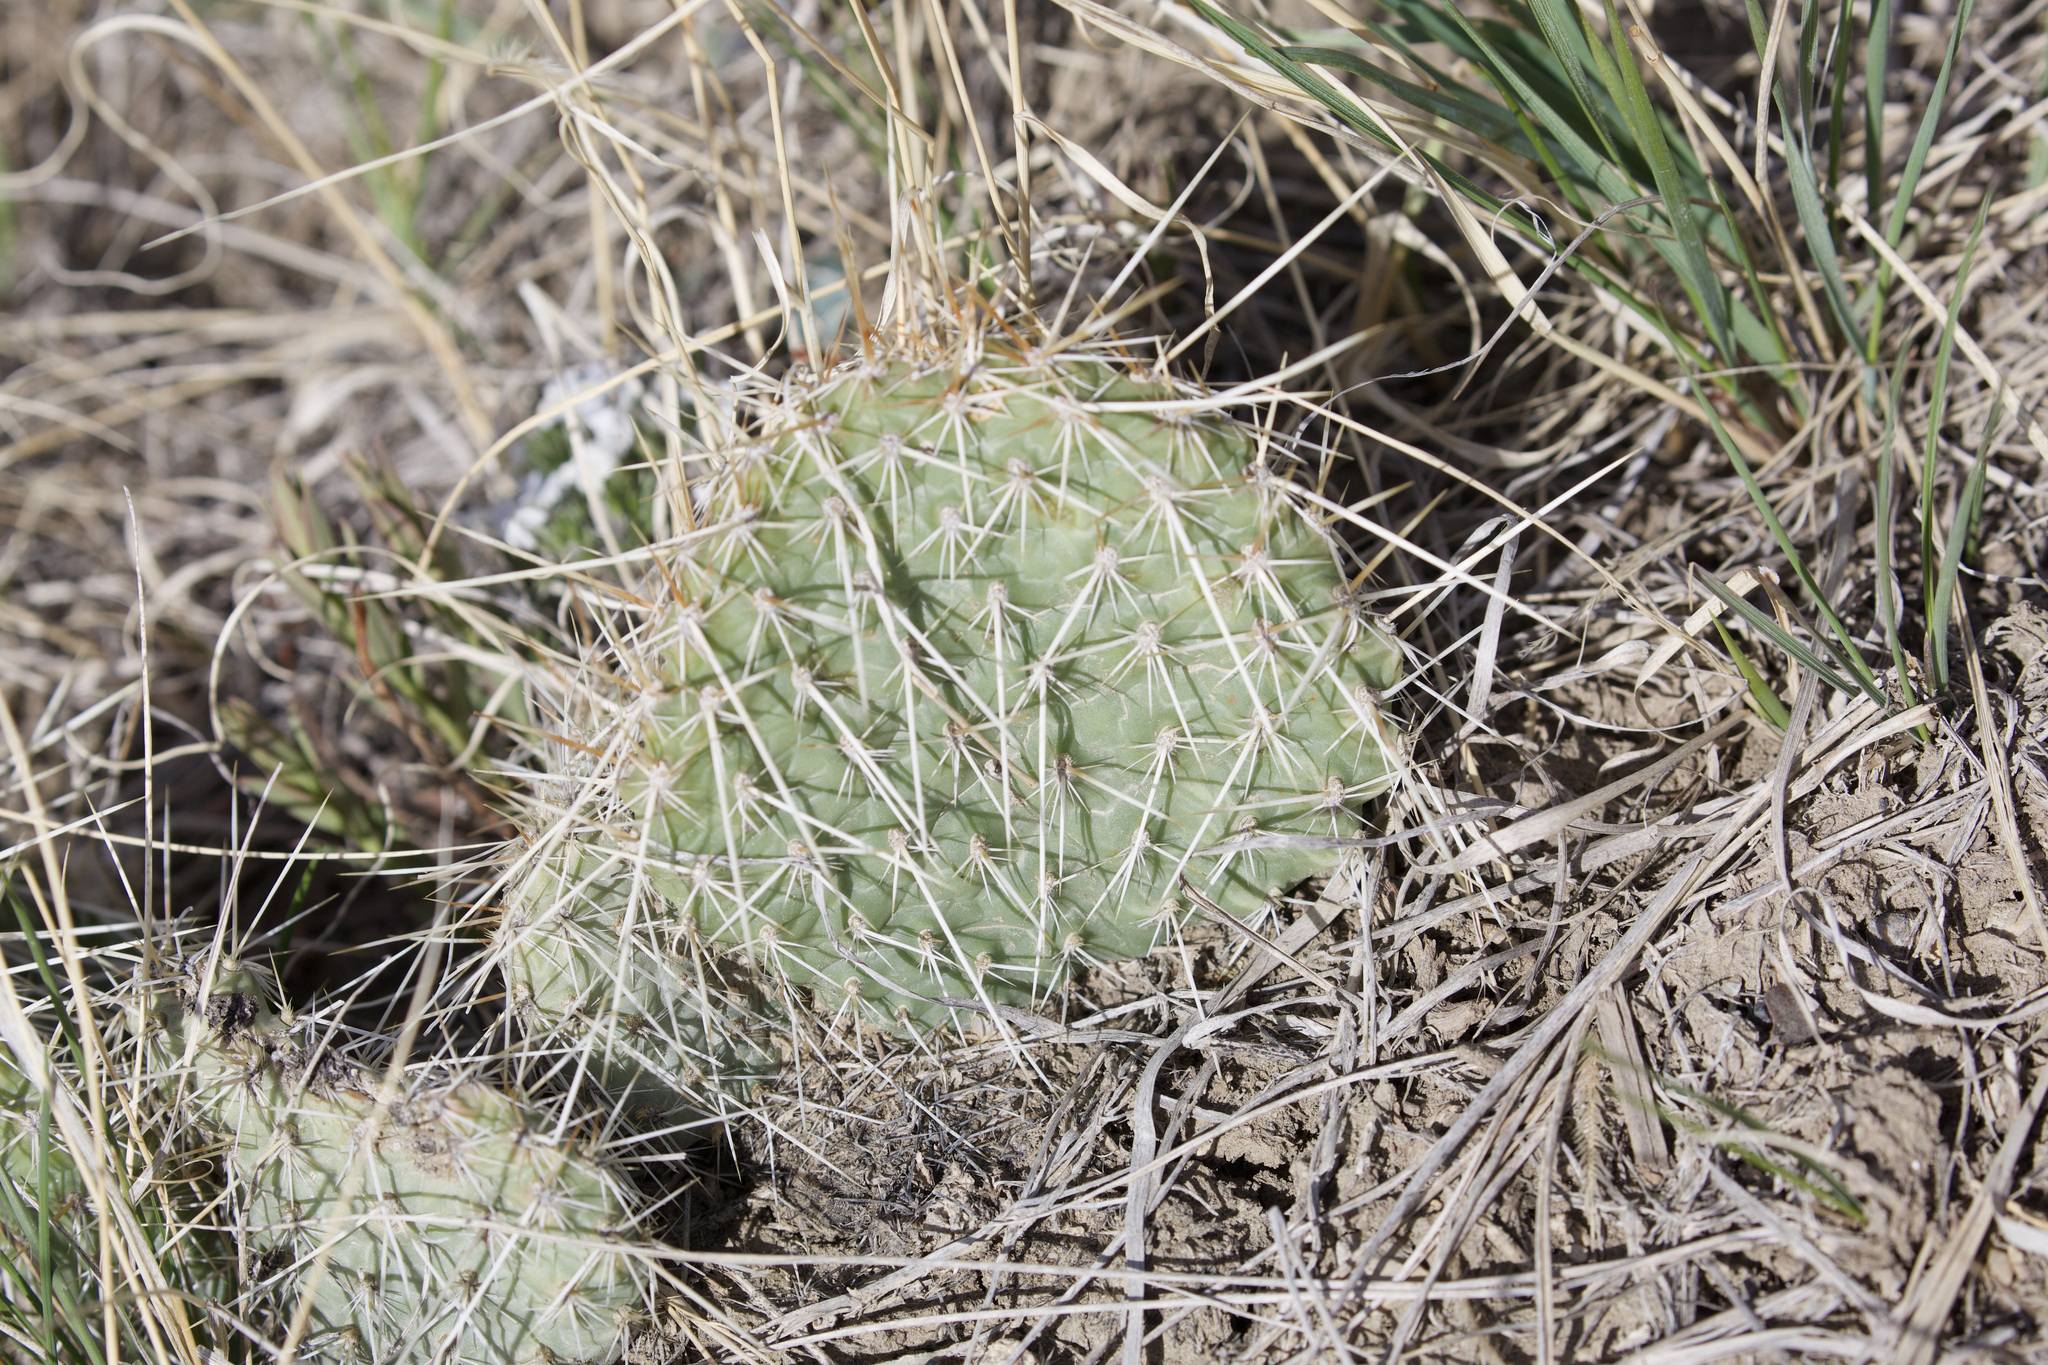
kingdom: Plantae
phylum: Tracheophyta
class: Magnoliopsida
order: Caryophyllales
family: Cactaceae
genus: Opuntia
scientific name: Opuntia polyacantha
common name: Plains prickly-pear
